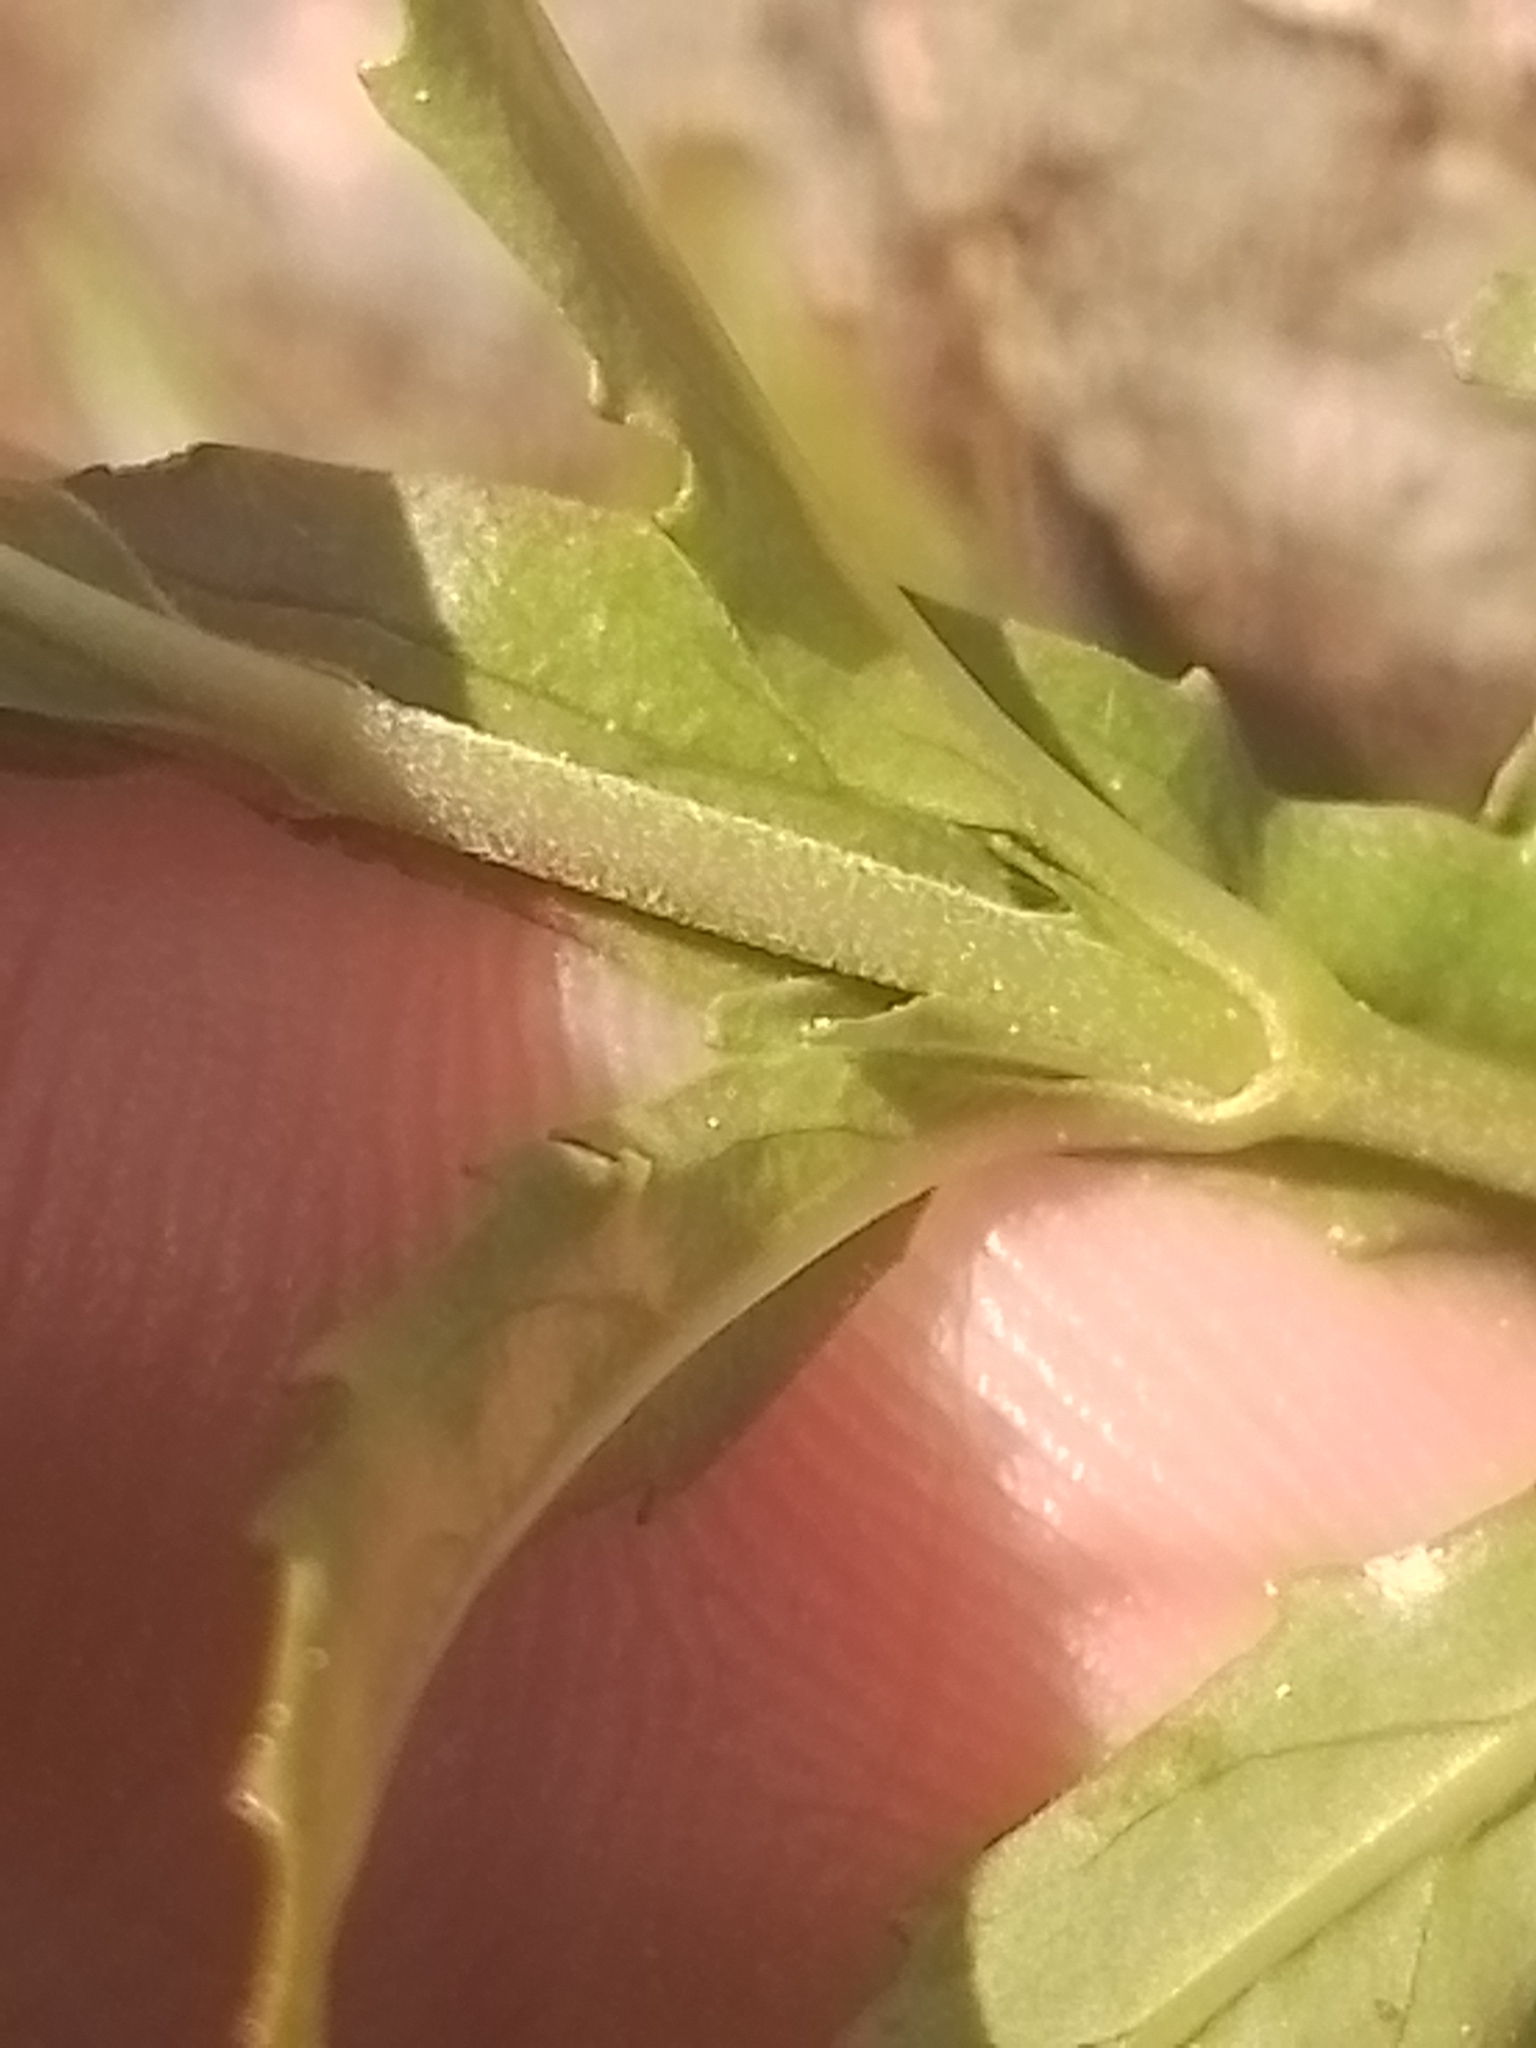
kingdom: Plantae
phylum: Tracheophyta
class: Magnoliopsida
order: Myrtales
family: Onagraceae
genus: Epilobium
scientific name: Epilobium billardierianum
